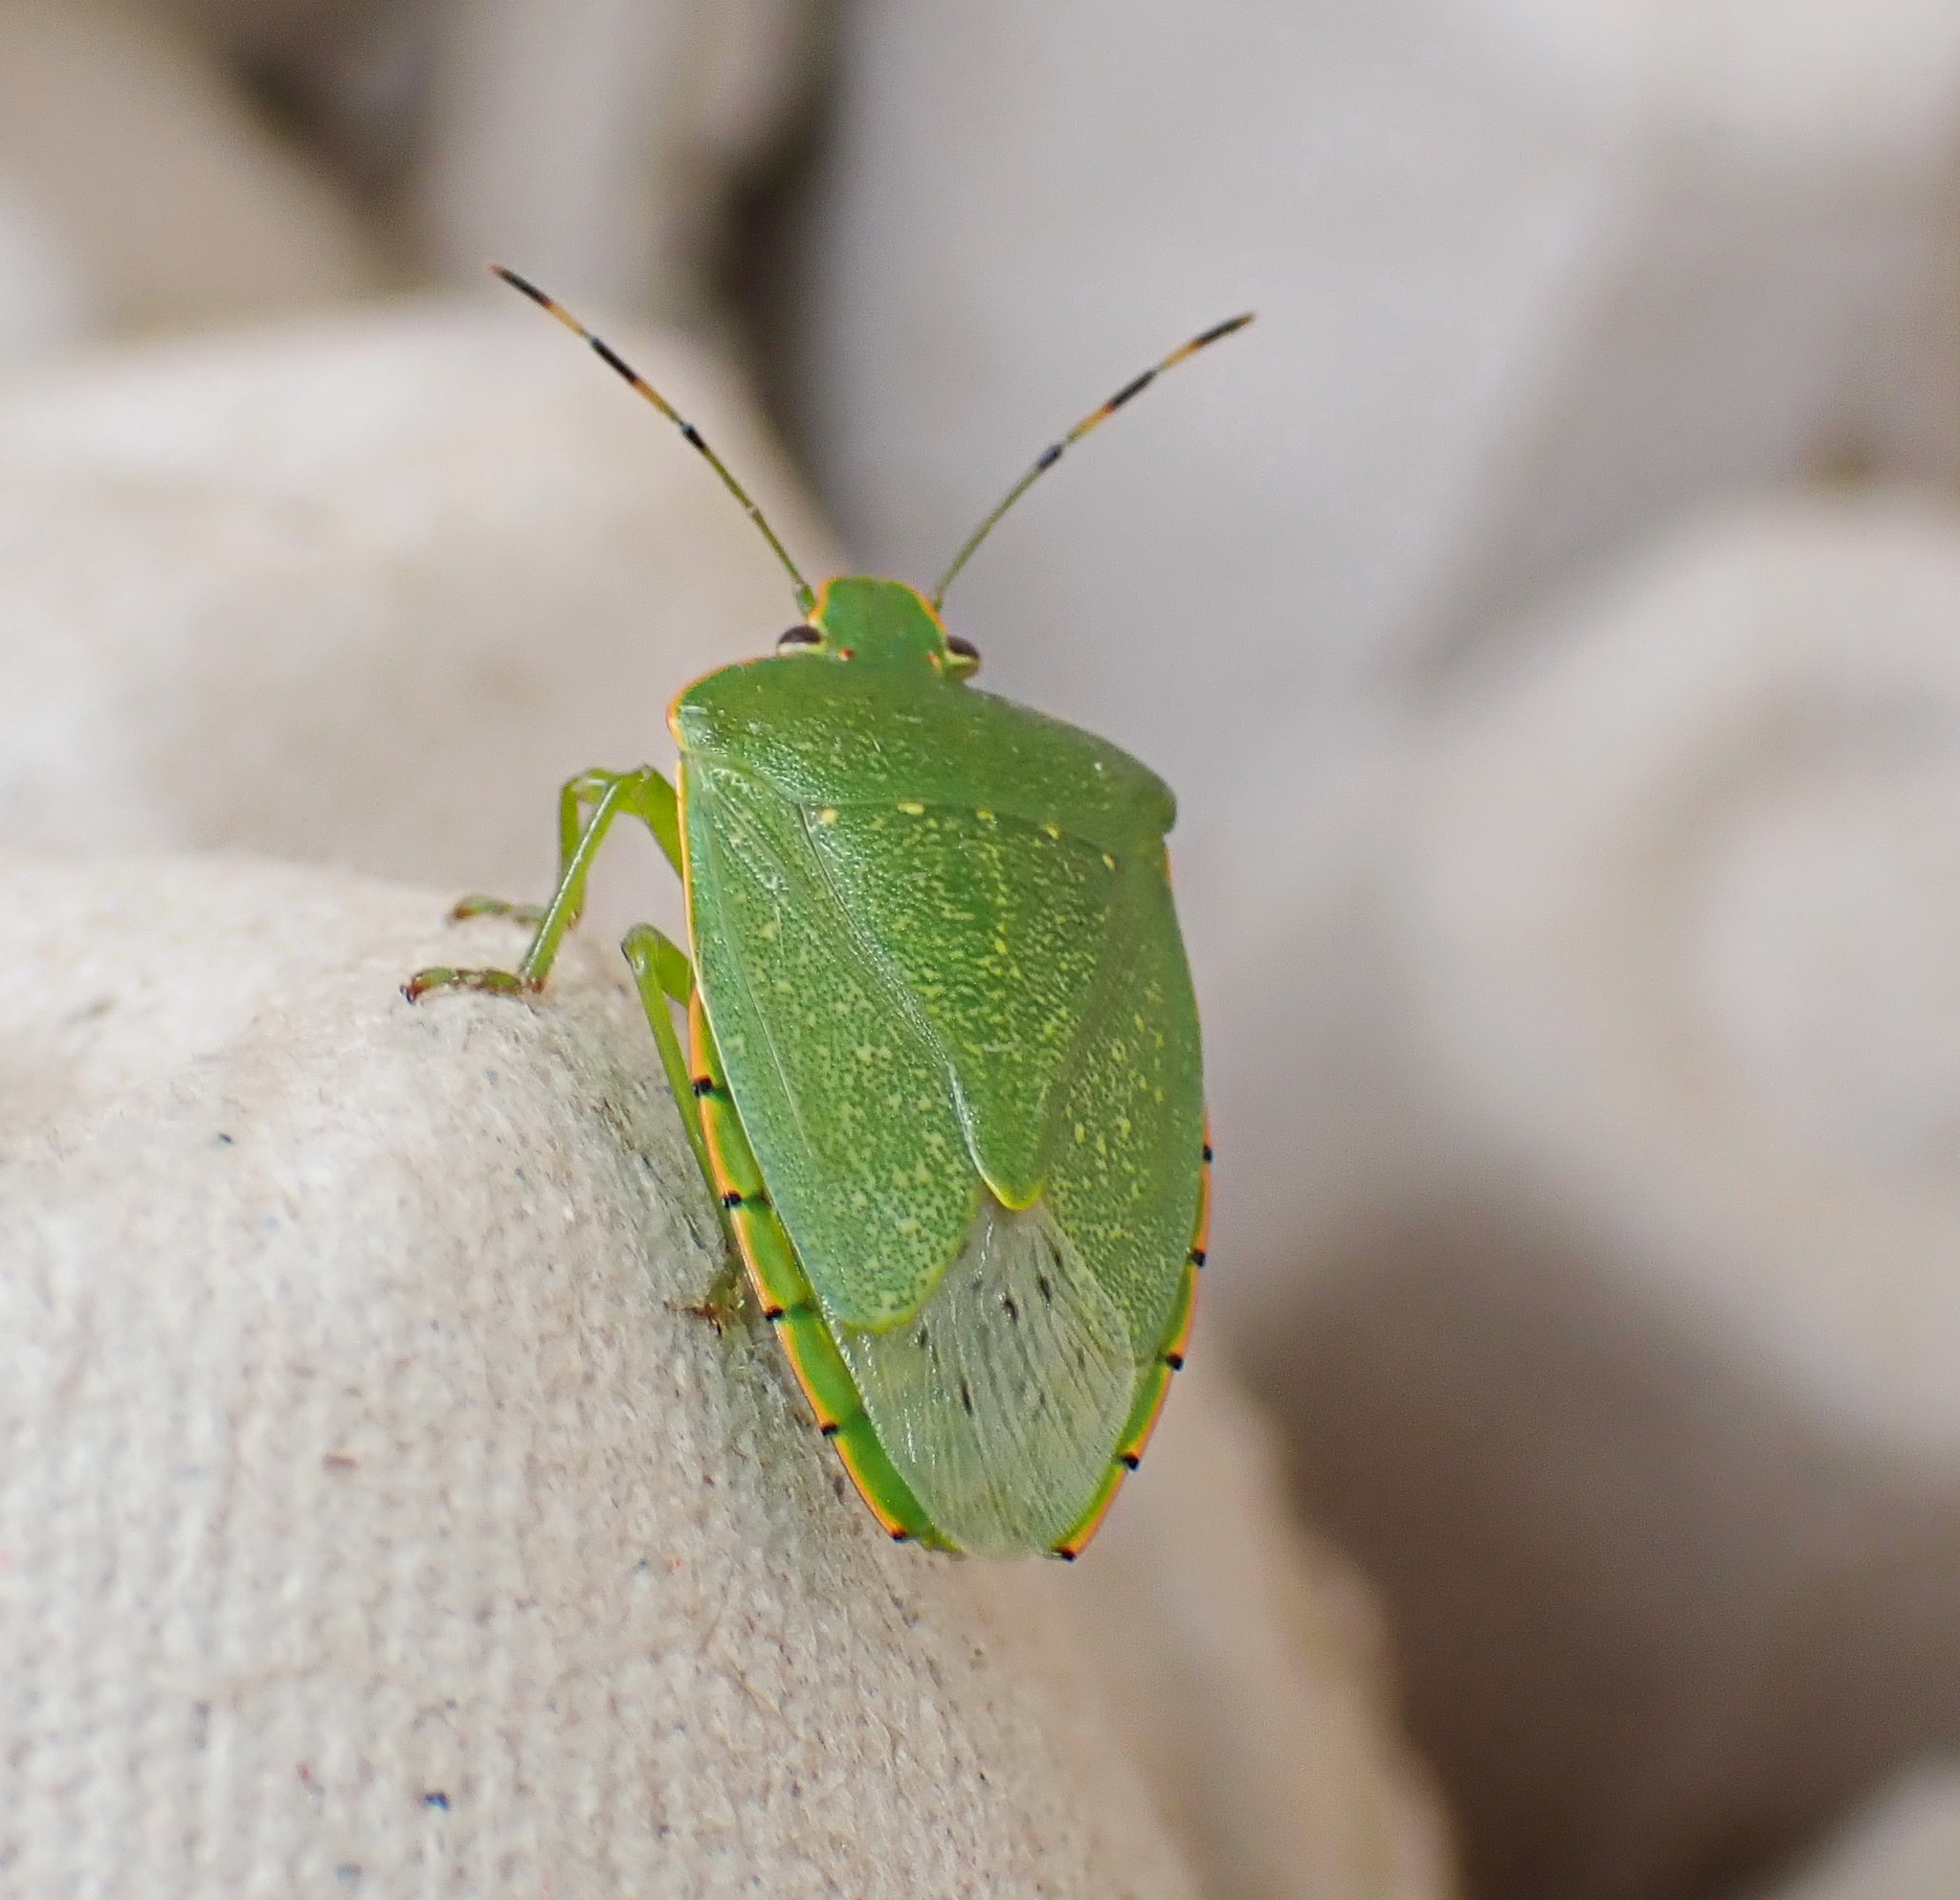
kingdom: Animalia
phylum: Arthropoda
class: Insecta
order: Hemiptera
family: Pentatomidae
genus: Chinavia
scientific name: Chinavia hilaris
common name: Green stink bug
